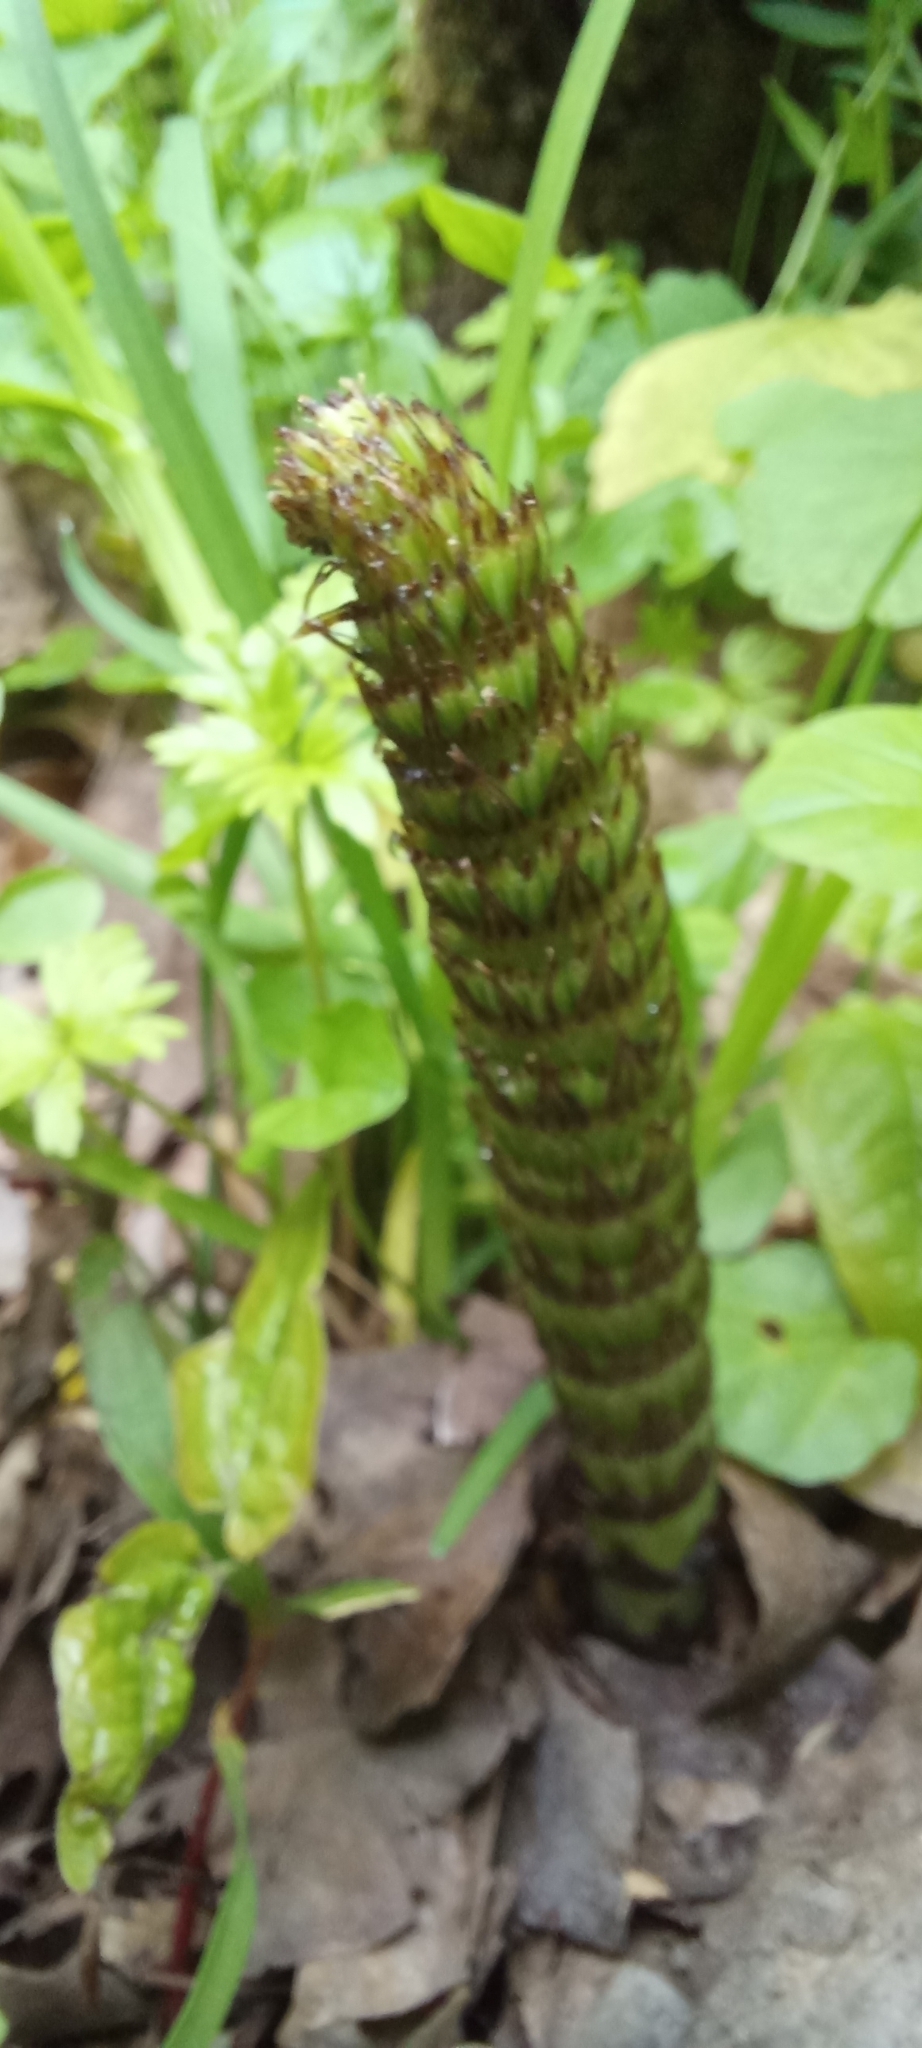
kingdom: Plantae
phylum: Tracheophyta
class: Polypodiopsida
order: Equisetales
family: Equisetaceae
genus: Equisetum
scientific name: Equisetum telmateia
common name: Great horsetail
